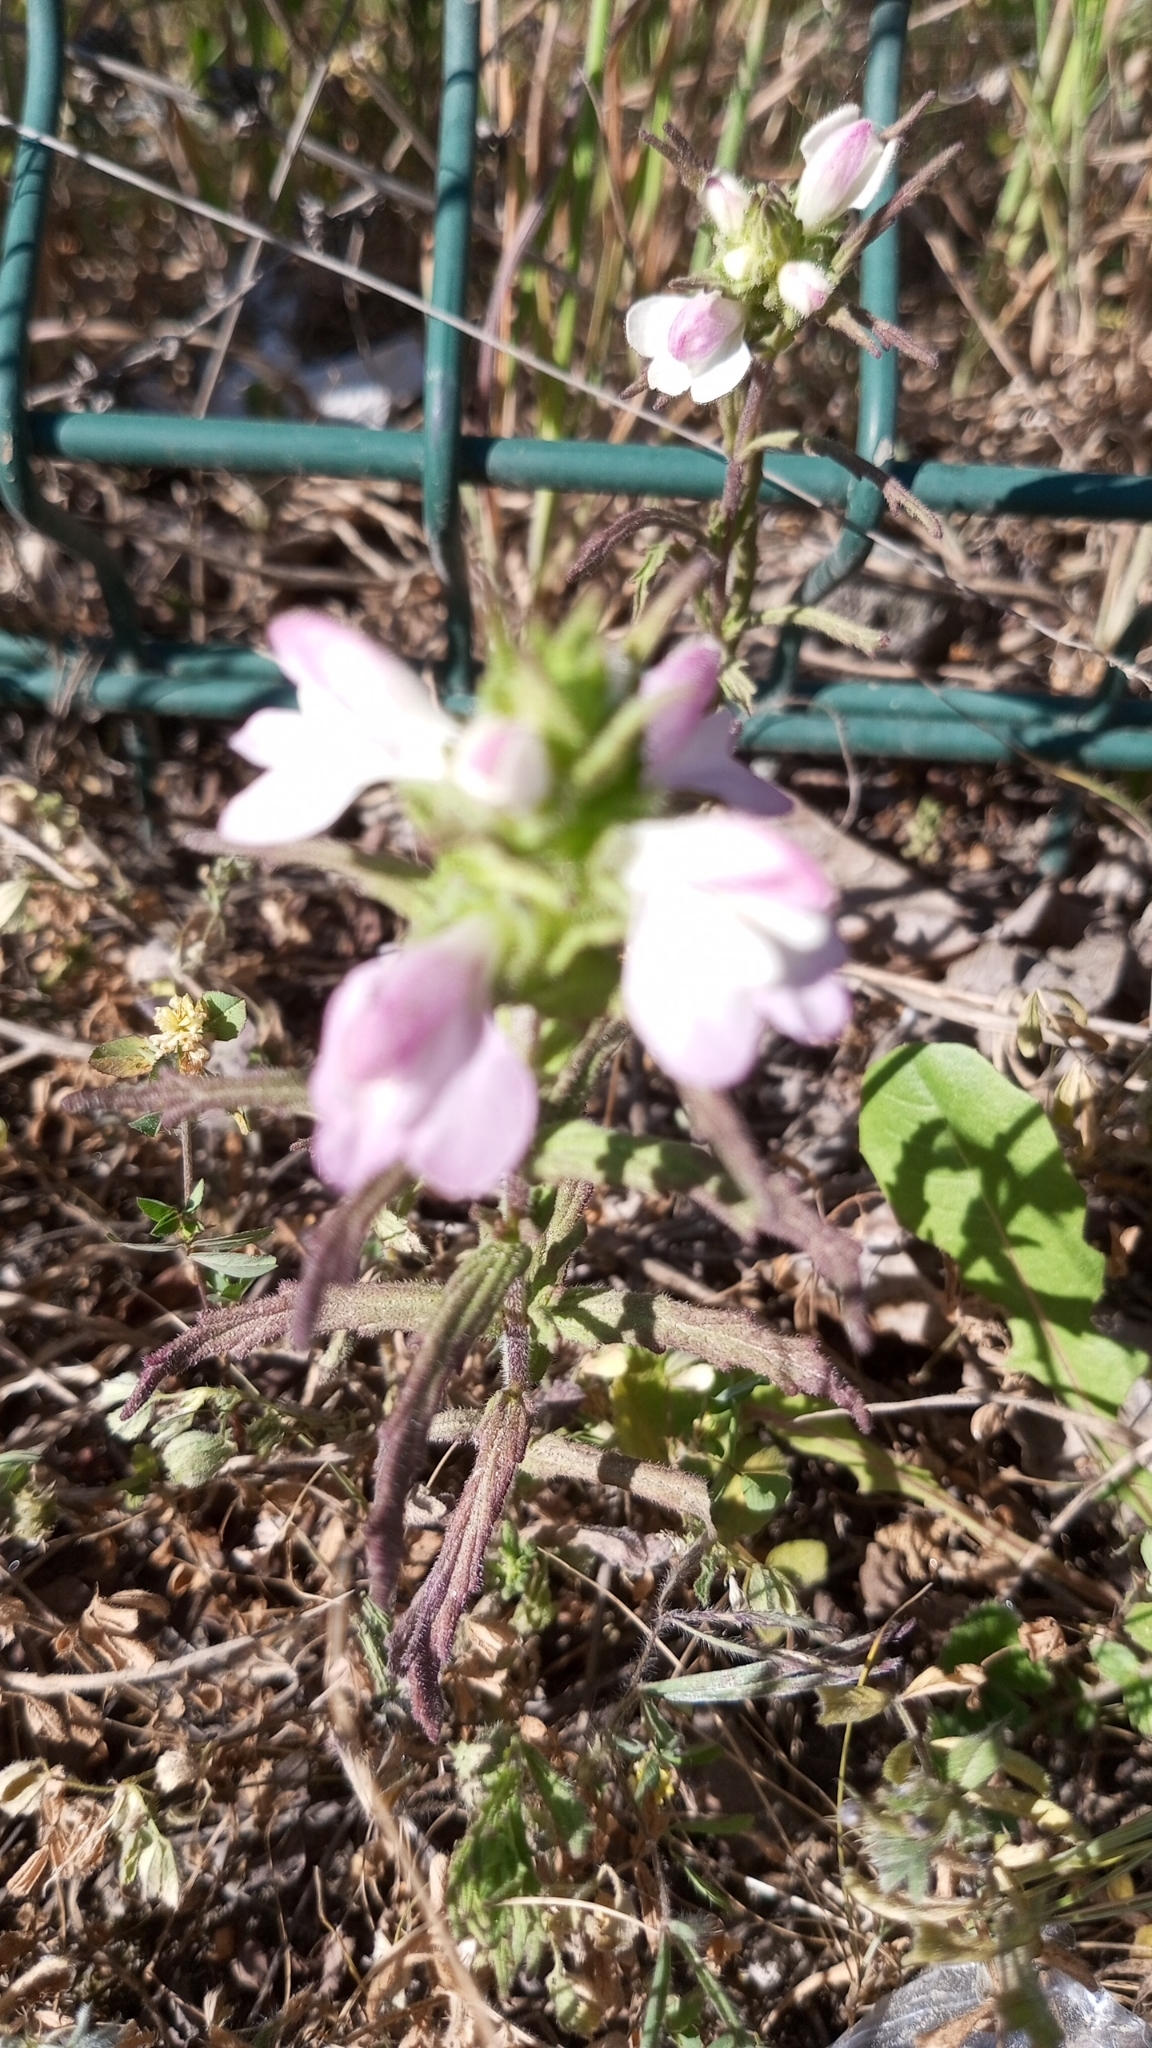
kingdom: Plantae
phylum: Tracheophyta
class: Magnoliopsida
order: Lamiales
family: Orobanchaceae
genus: Bellardia
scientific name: Bellardia trixago
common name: Mediterranean lineseed
